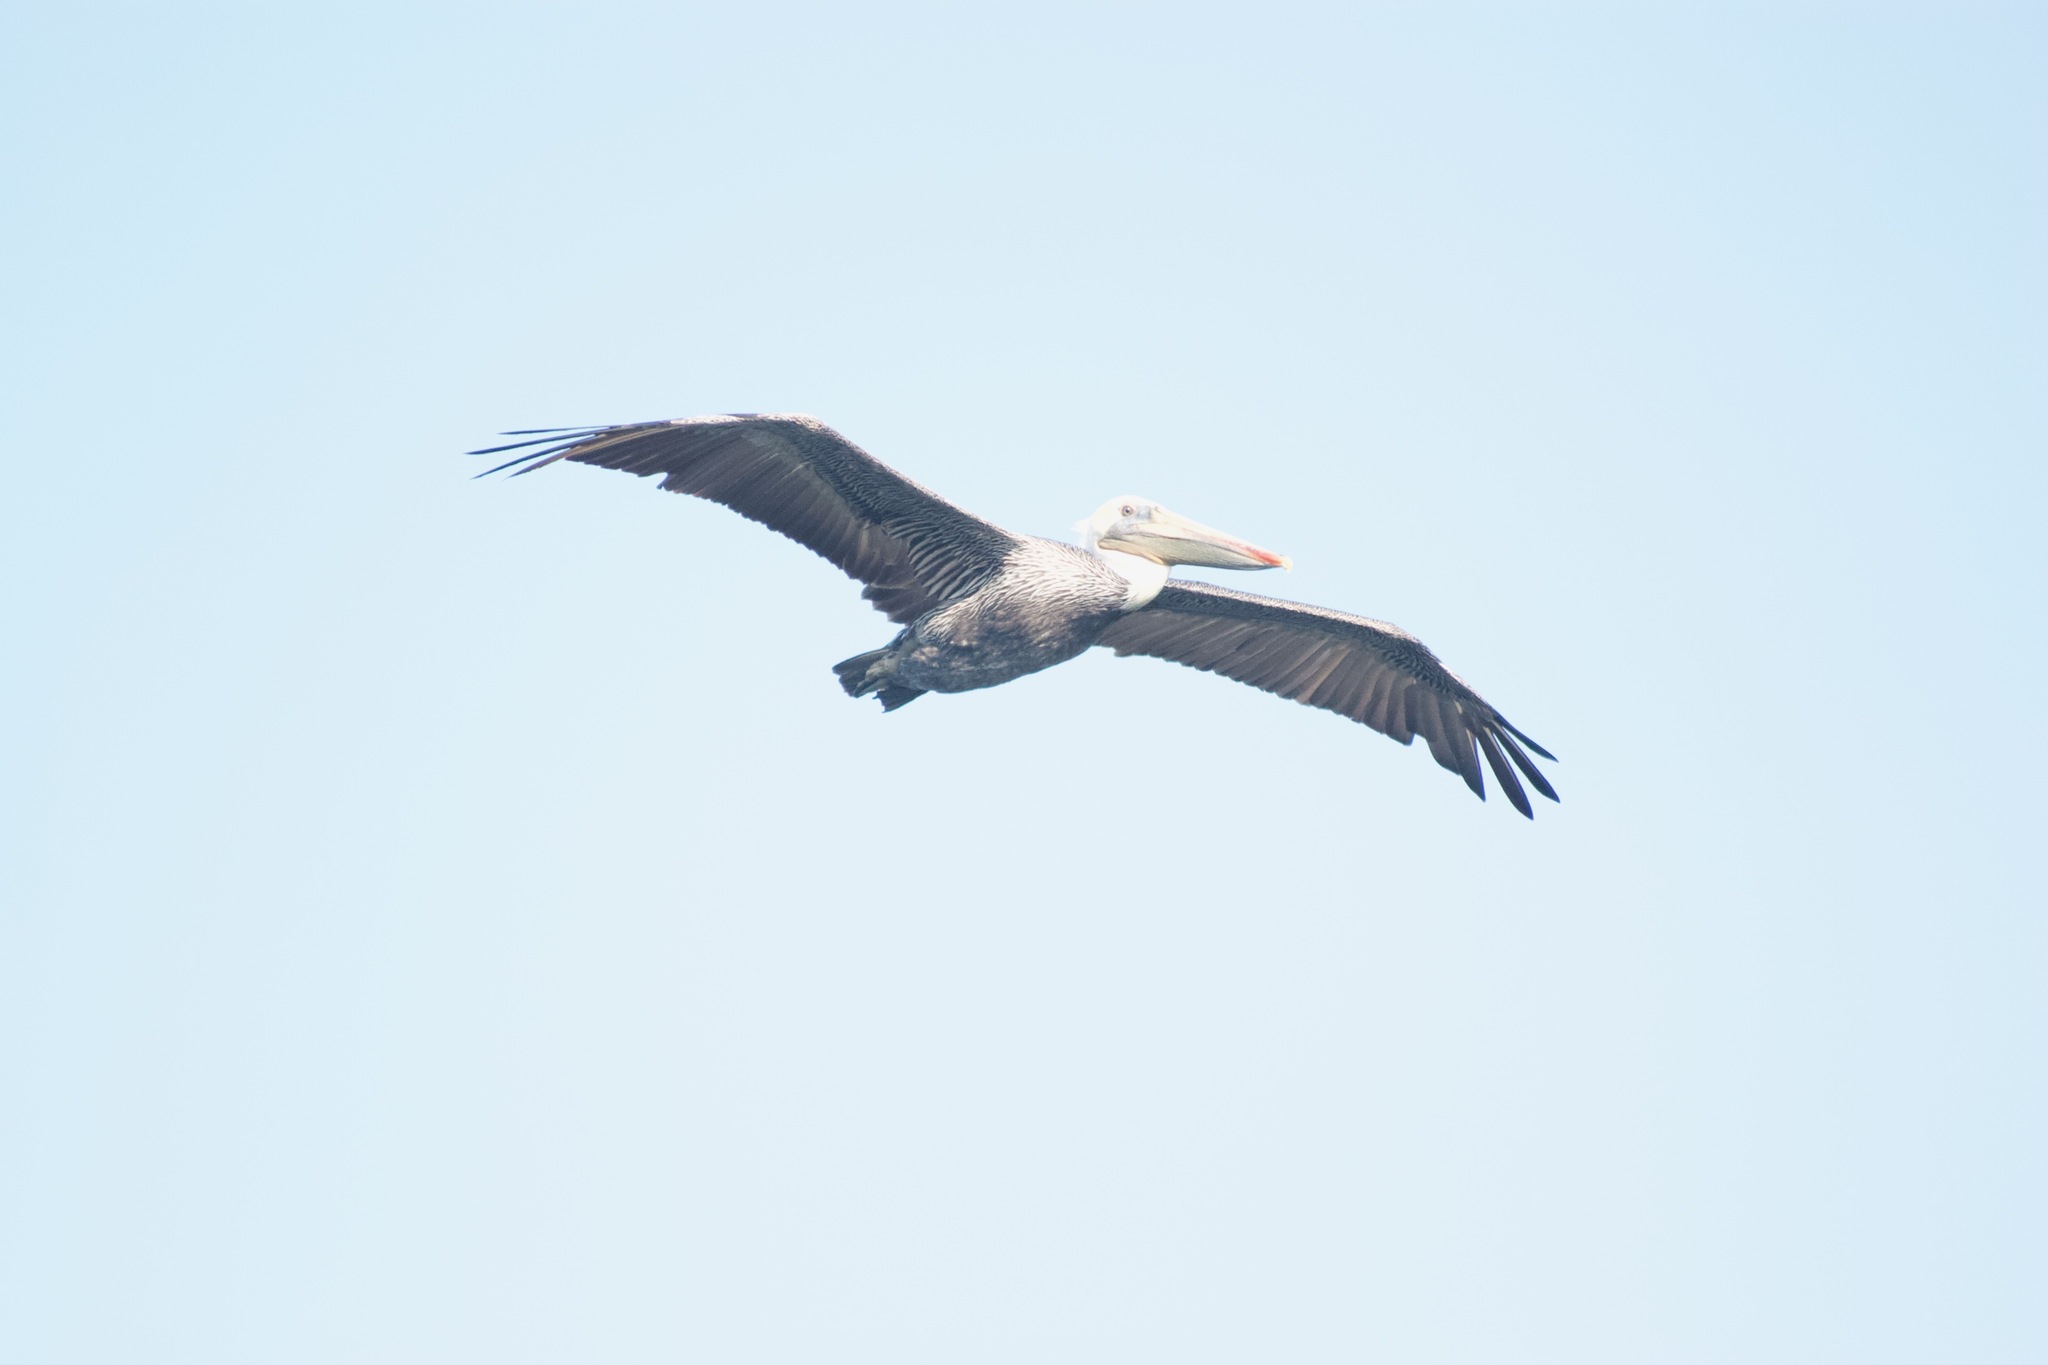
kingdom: Animalia
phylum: Chordata
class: Aves
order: Pelecaniformes
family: Pelecanidae
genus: Pelecanus
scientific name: Pelecanus occidentalis
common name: Brown pelican
